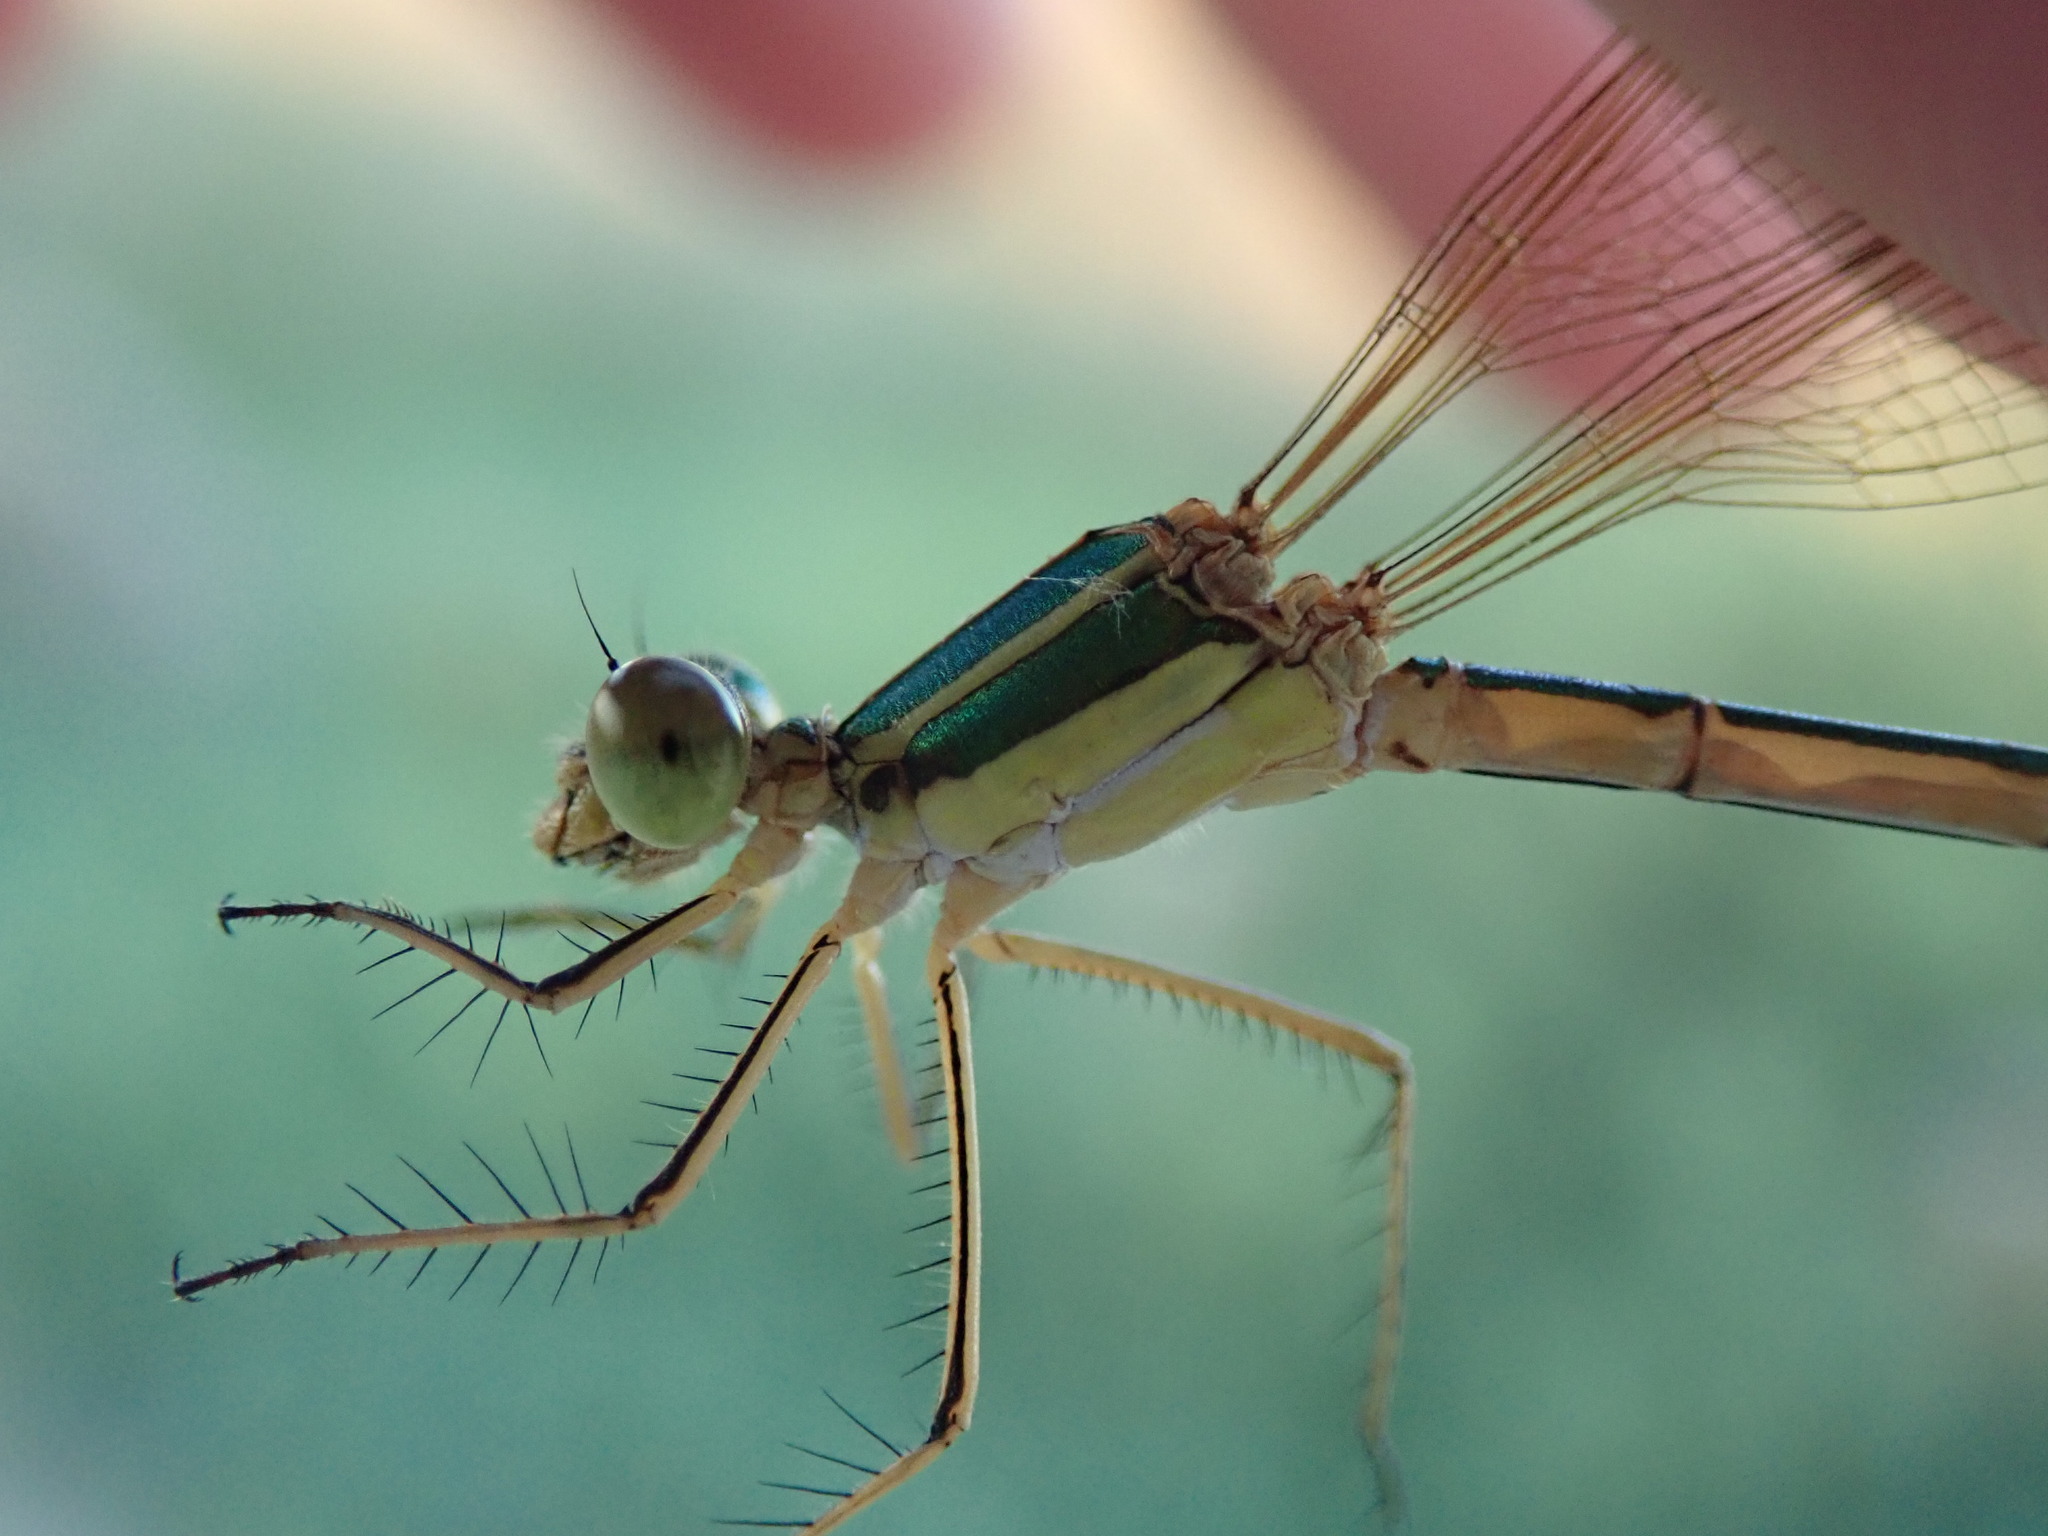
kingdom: Animalia
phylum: Arthropoda
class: Insecta
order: Odonata
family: Lestidae
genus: Lestes
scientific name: Lestes barbarus
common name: Migrant spreadwing
